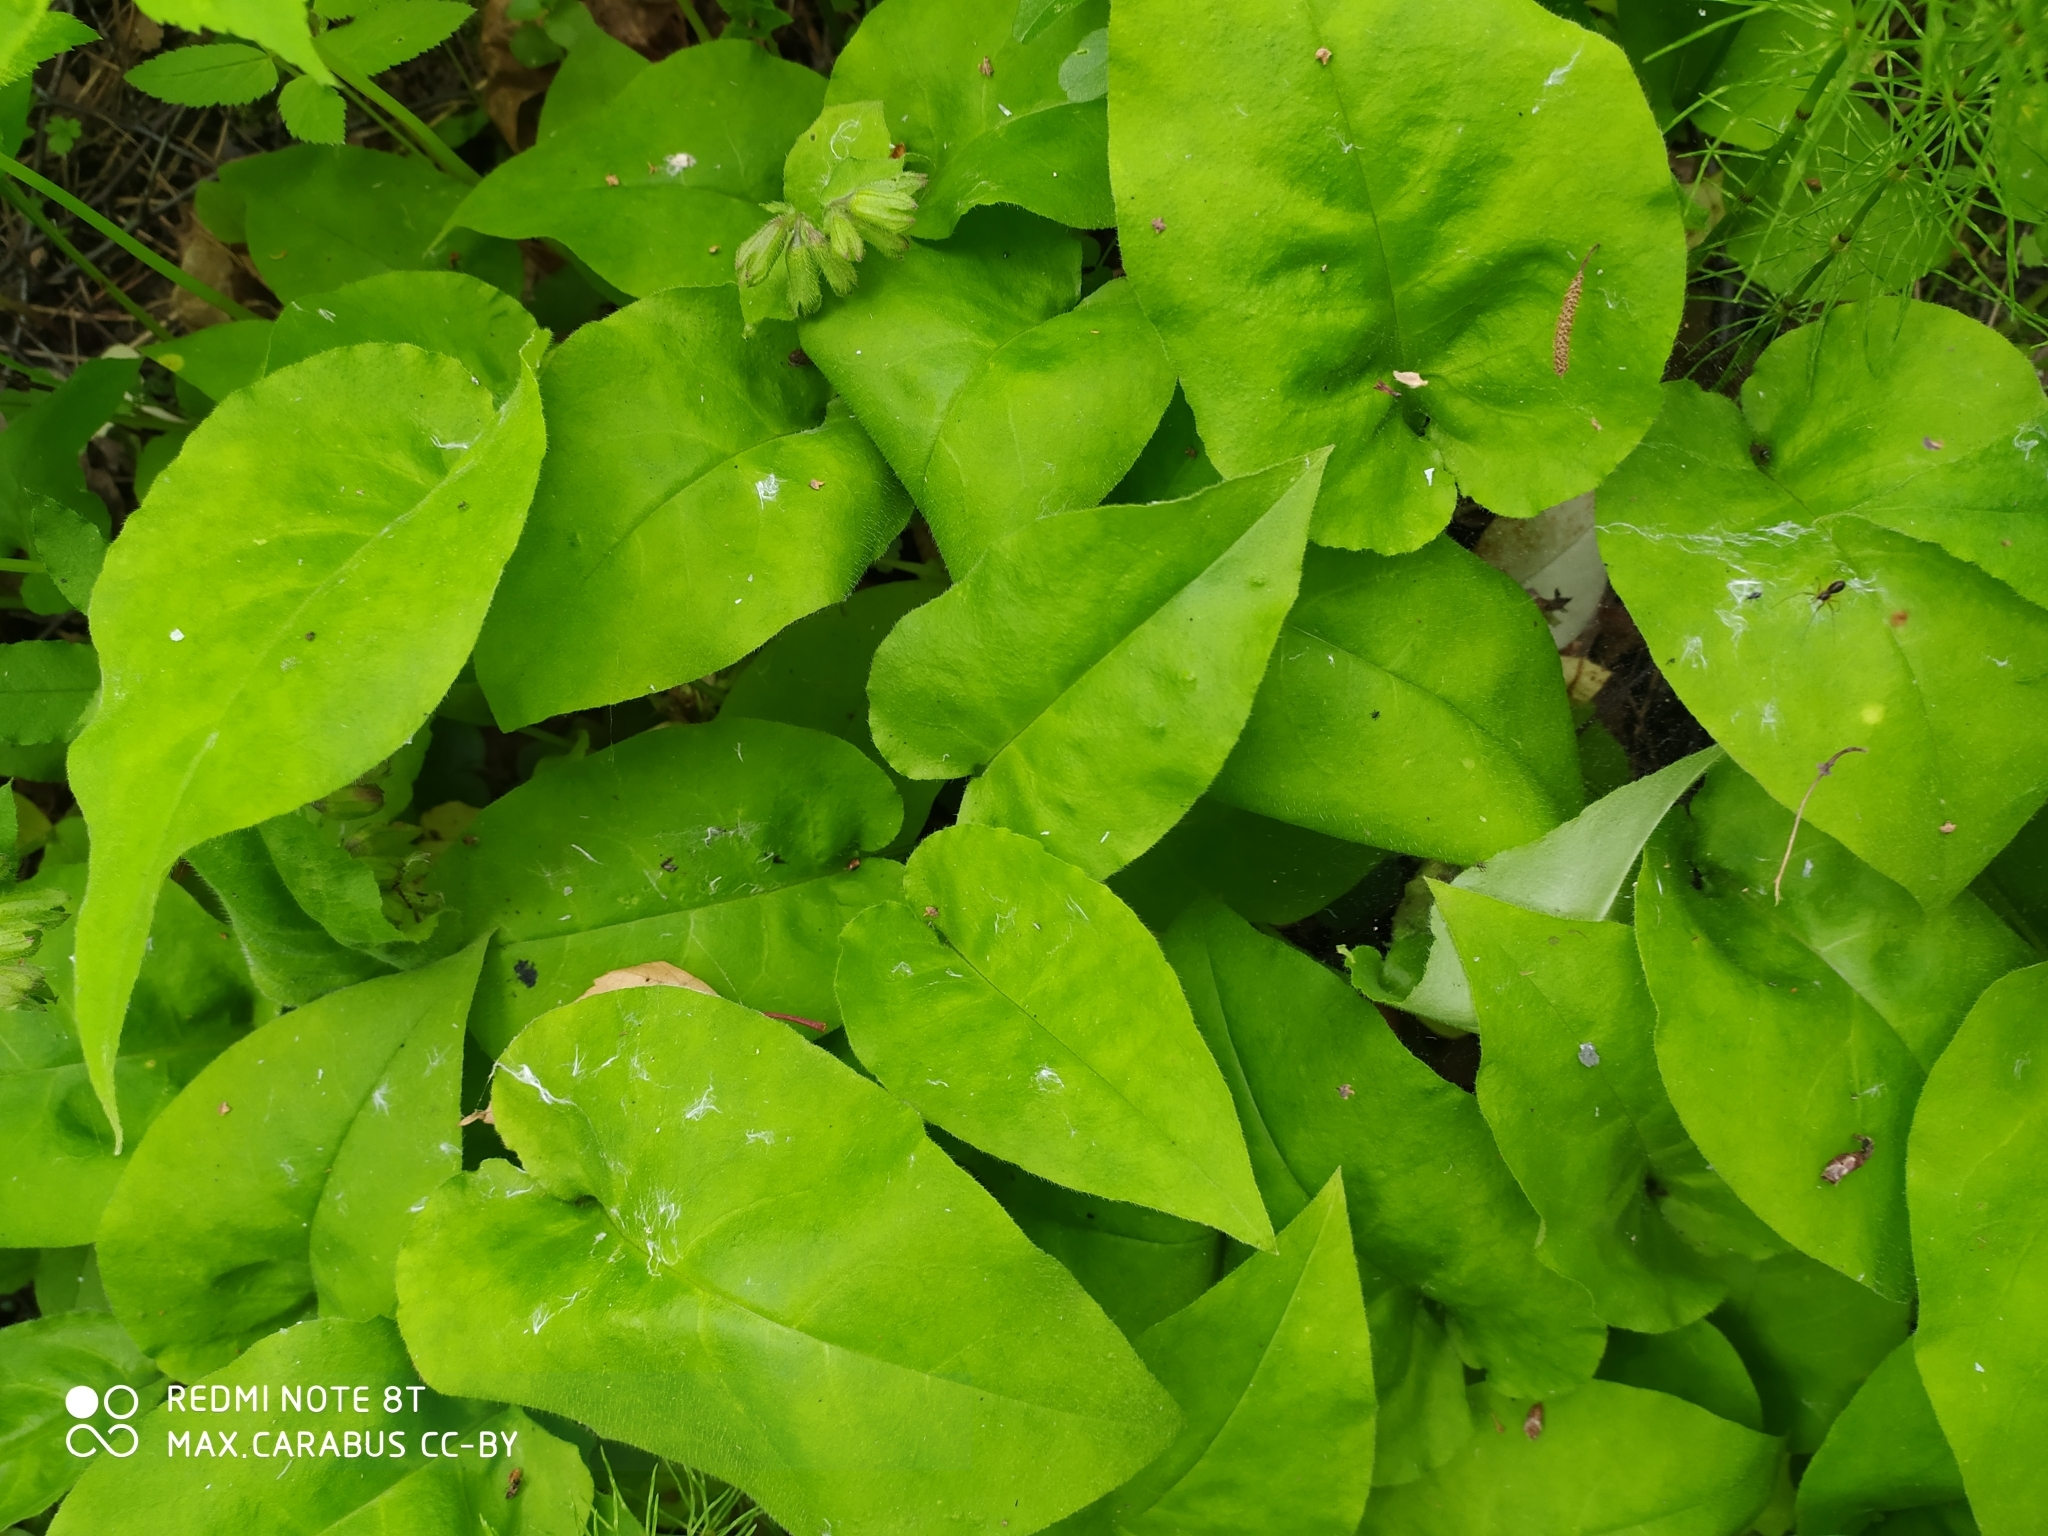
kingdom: Plantae
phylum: Tracheophyta
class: Magnoliopsida
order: Boraginales
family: Boraginaceae
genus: Pulmonaria
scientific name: Pulmonaria obscura
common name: Suffolk lungwort
